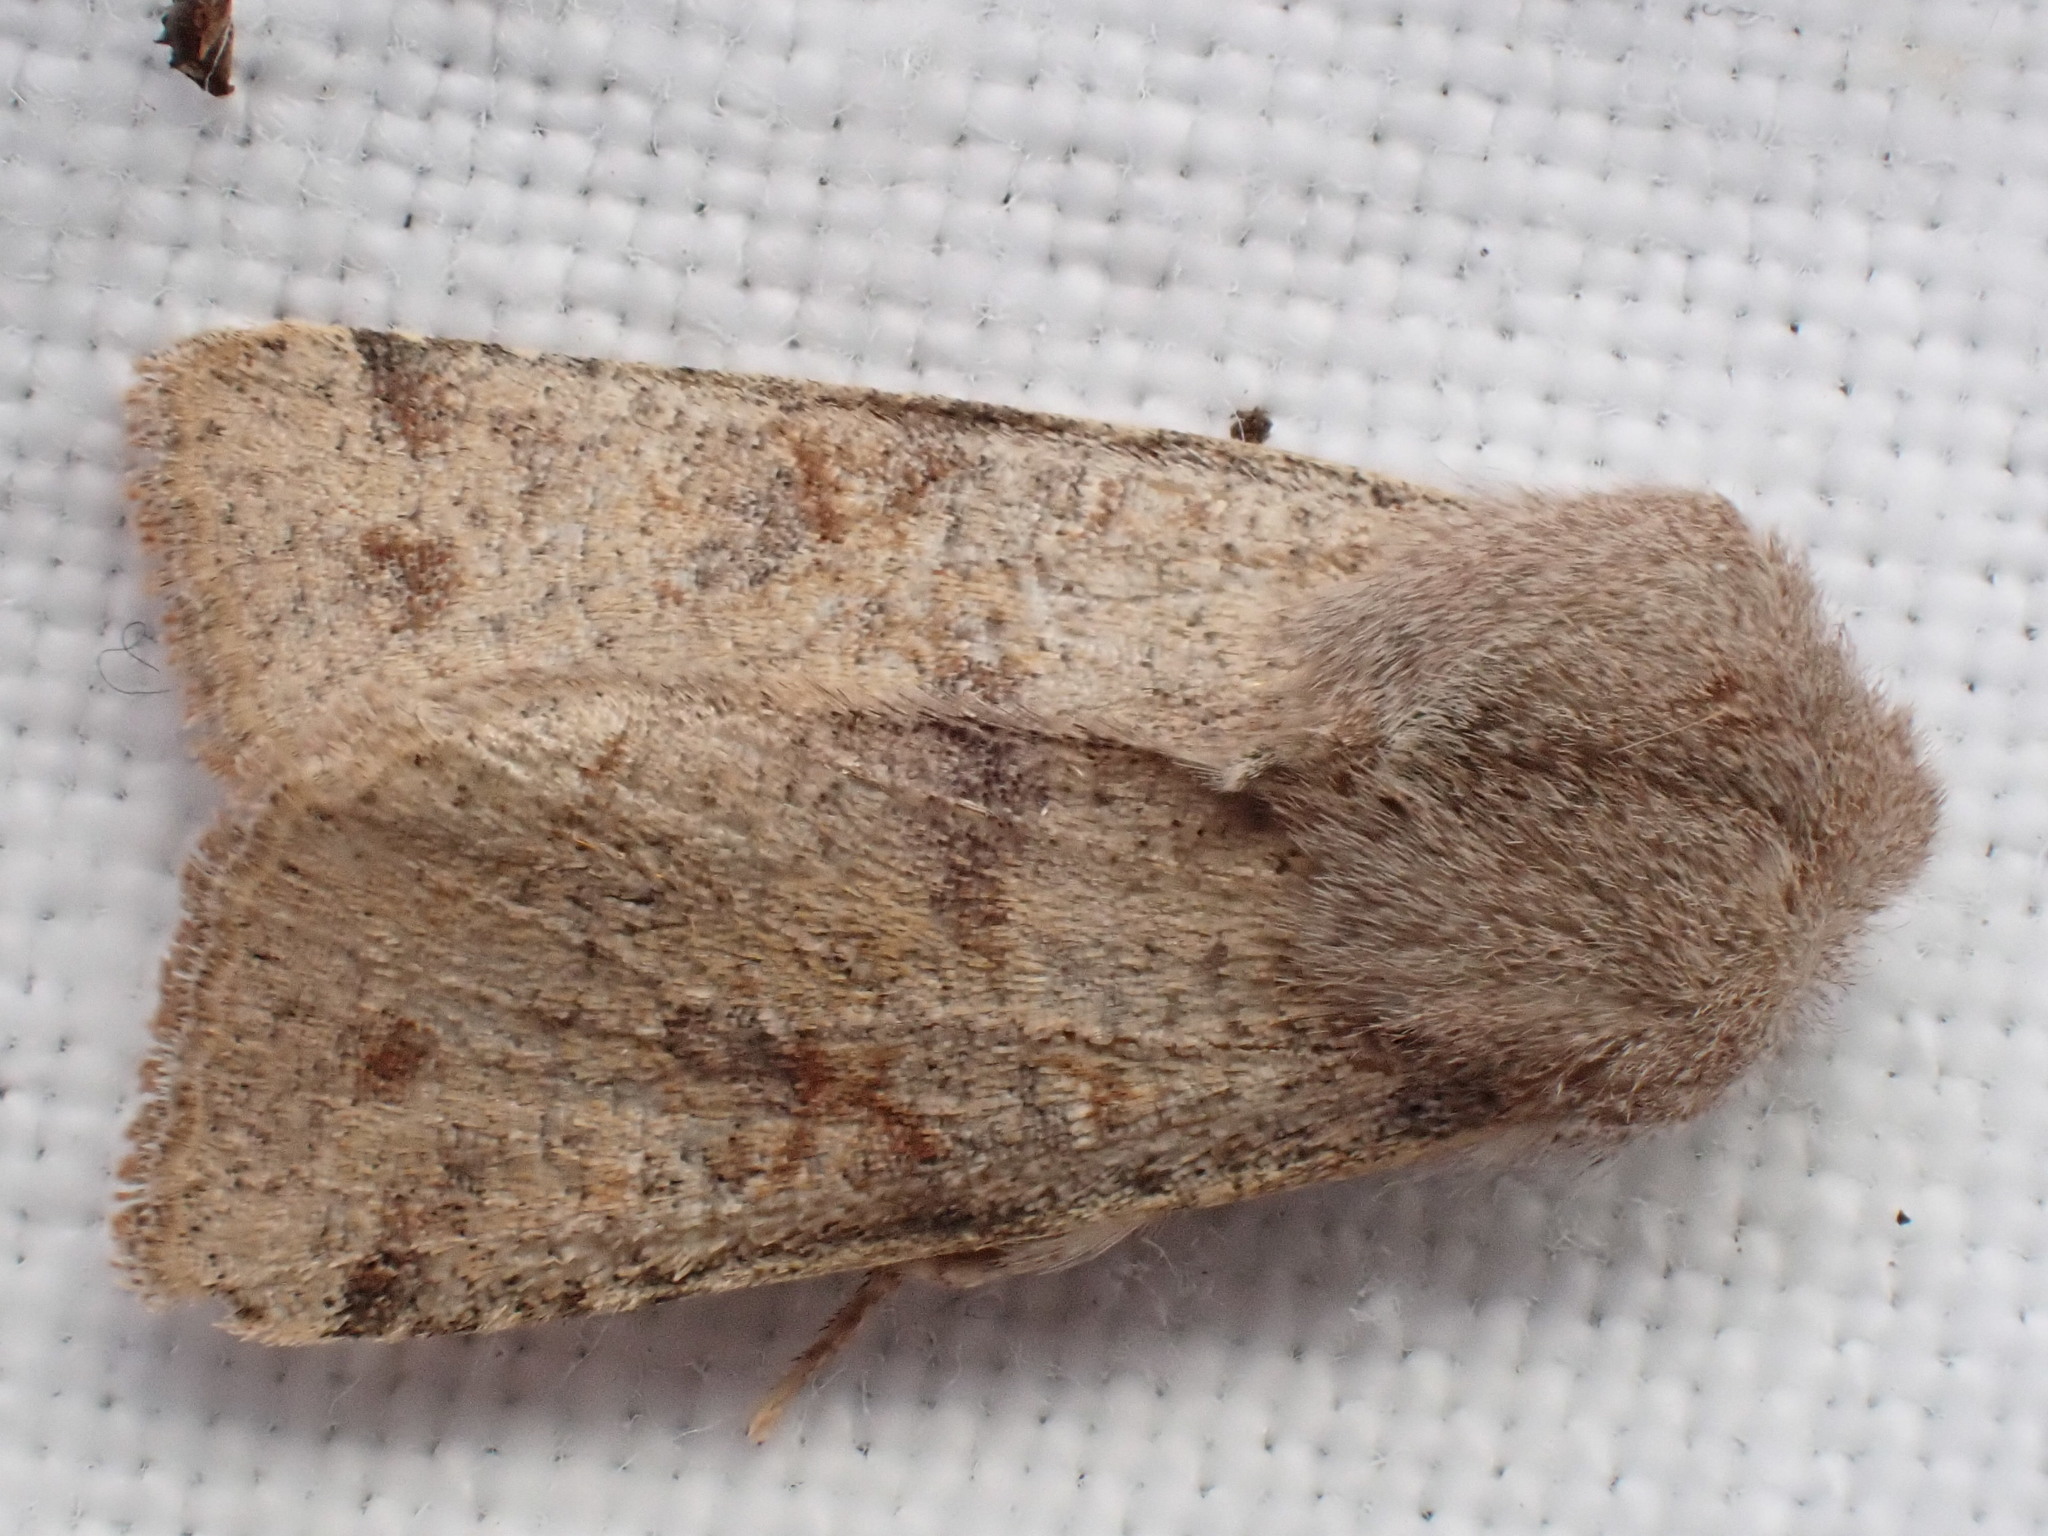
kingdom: Animalia
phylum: Arthropoda
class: Insecta
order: Lepidoptera
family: Noctuidae
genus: Orthosia
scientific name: Orthosia incerta
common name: Clouded drab
